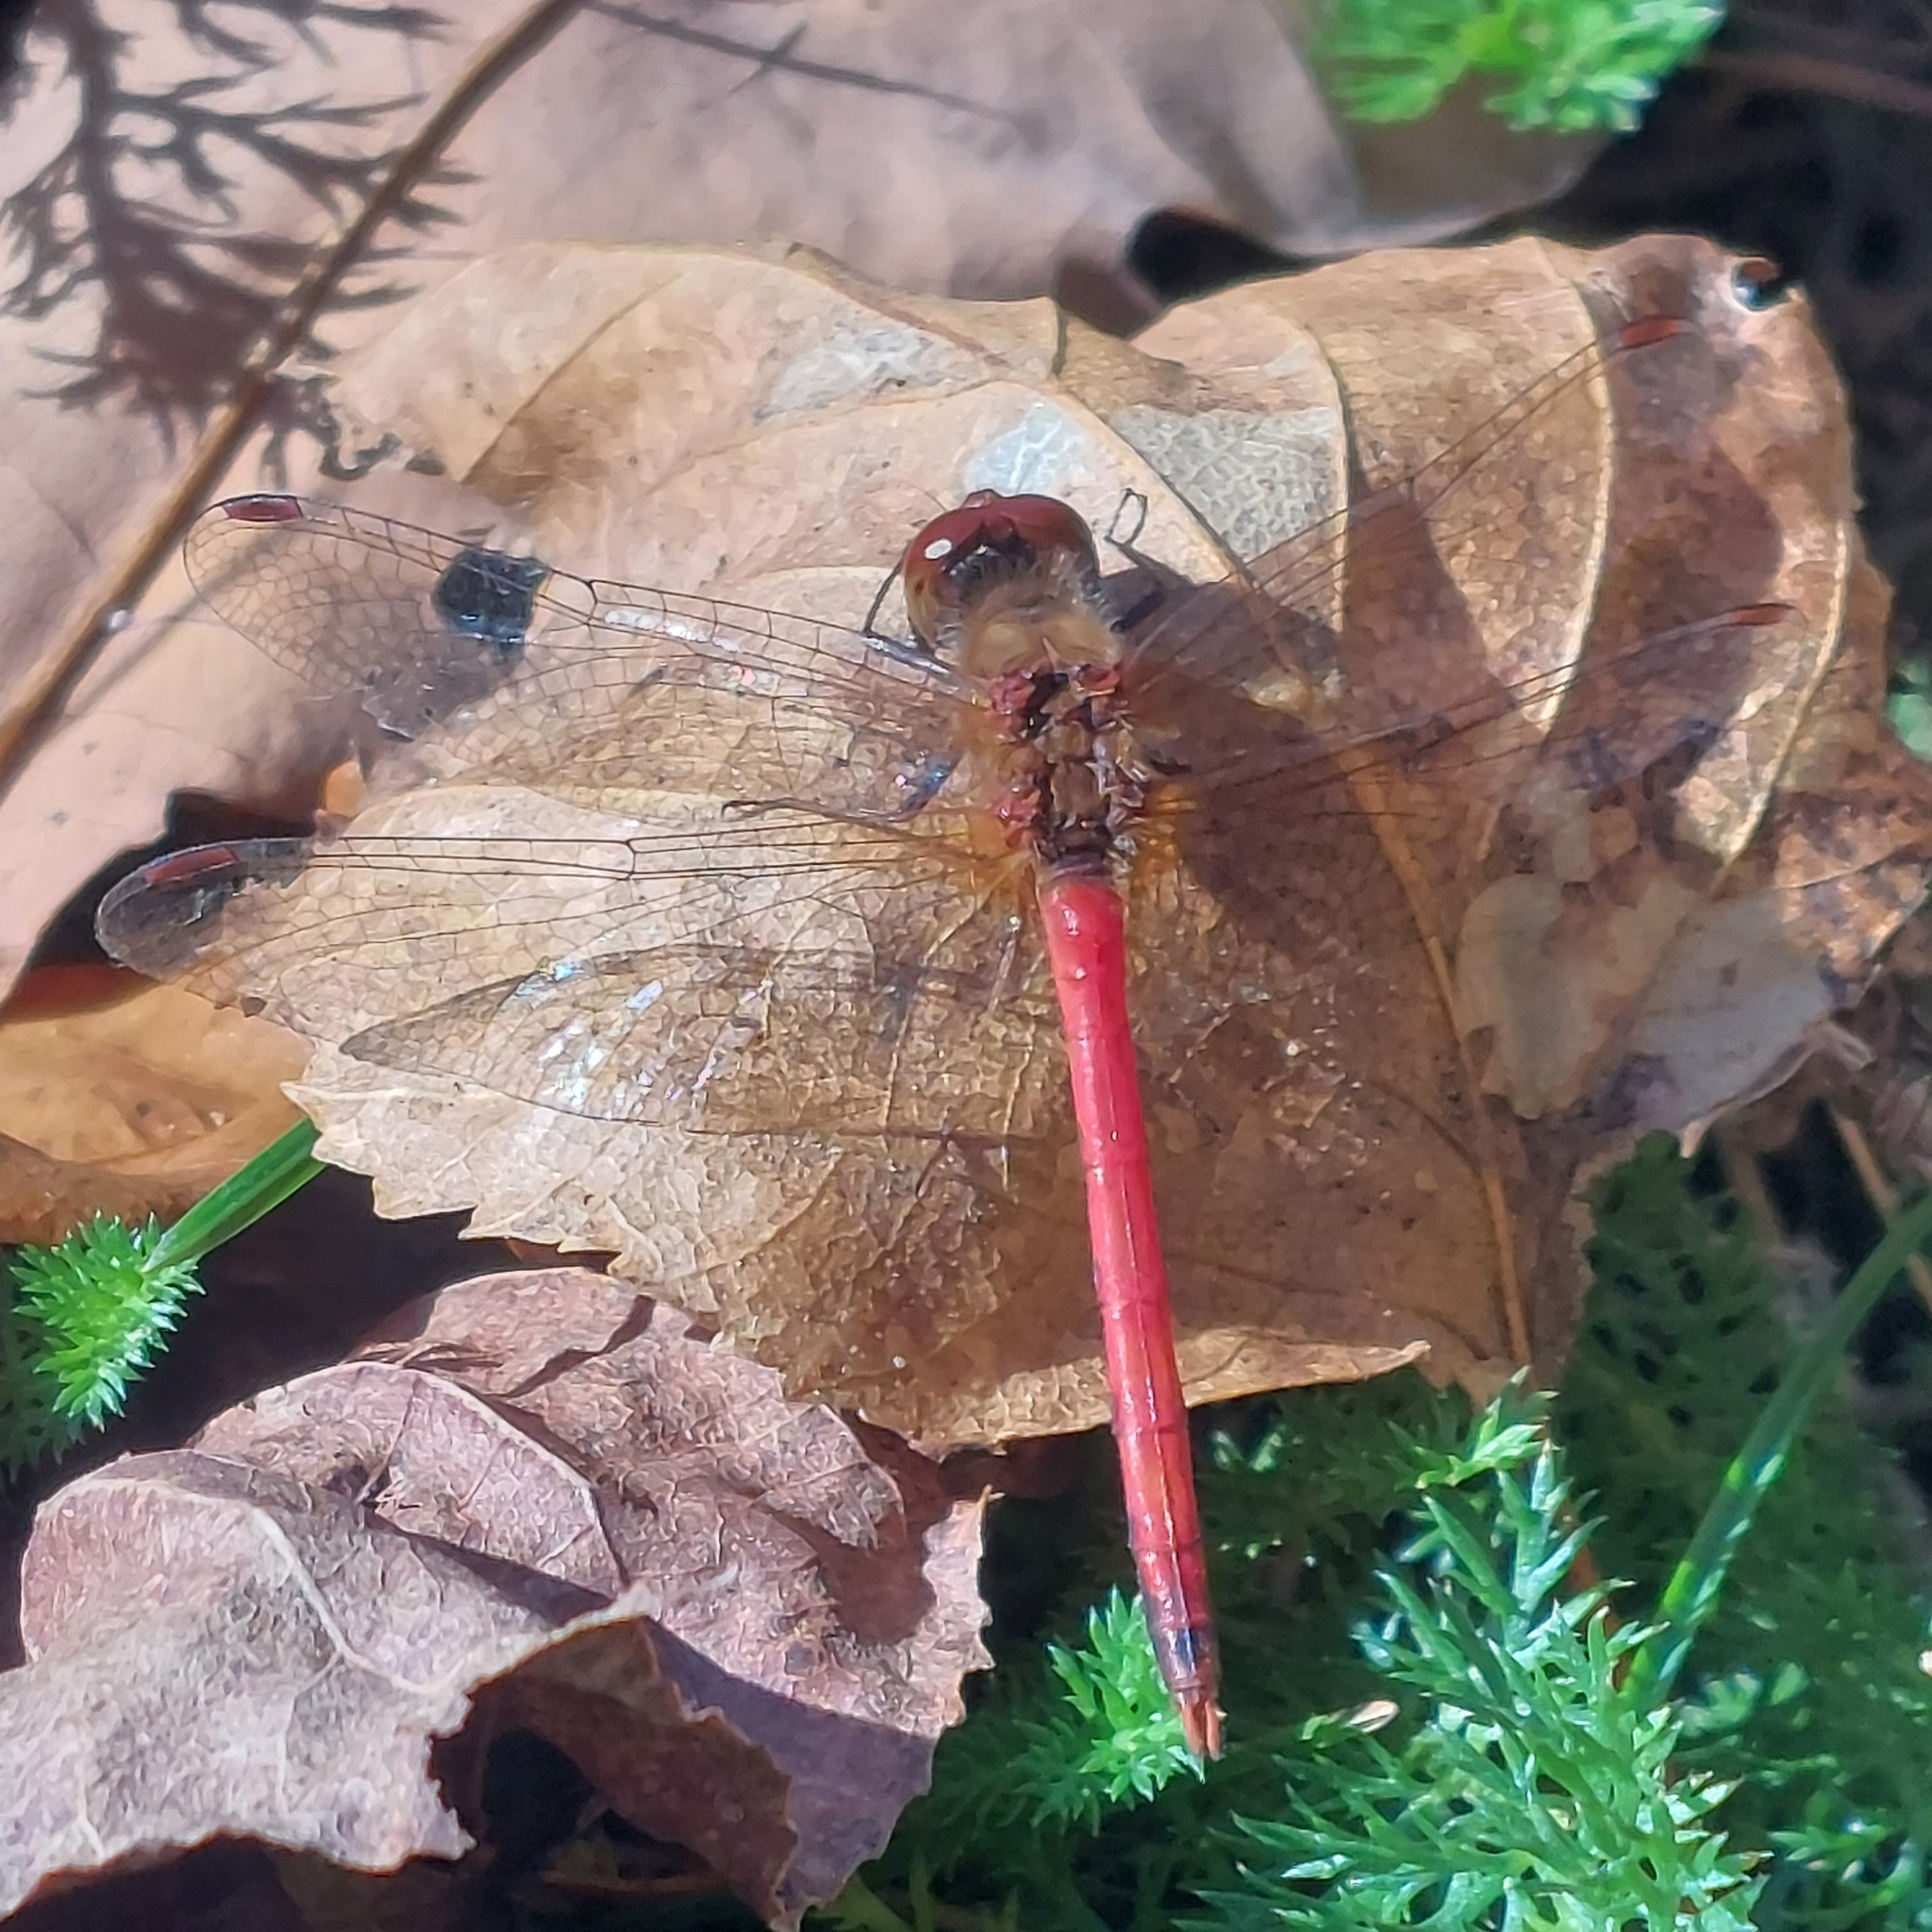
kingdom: Animalia
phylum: Arthropoda
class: Insecta
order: Odonata
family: Libellulidae
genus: Sympetrum
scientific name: Sympetrum vicinum
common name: Autumn meadowhawk
